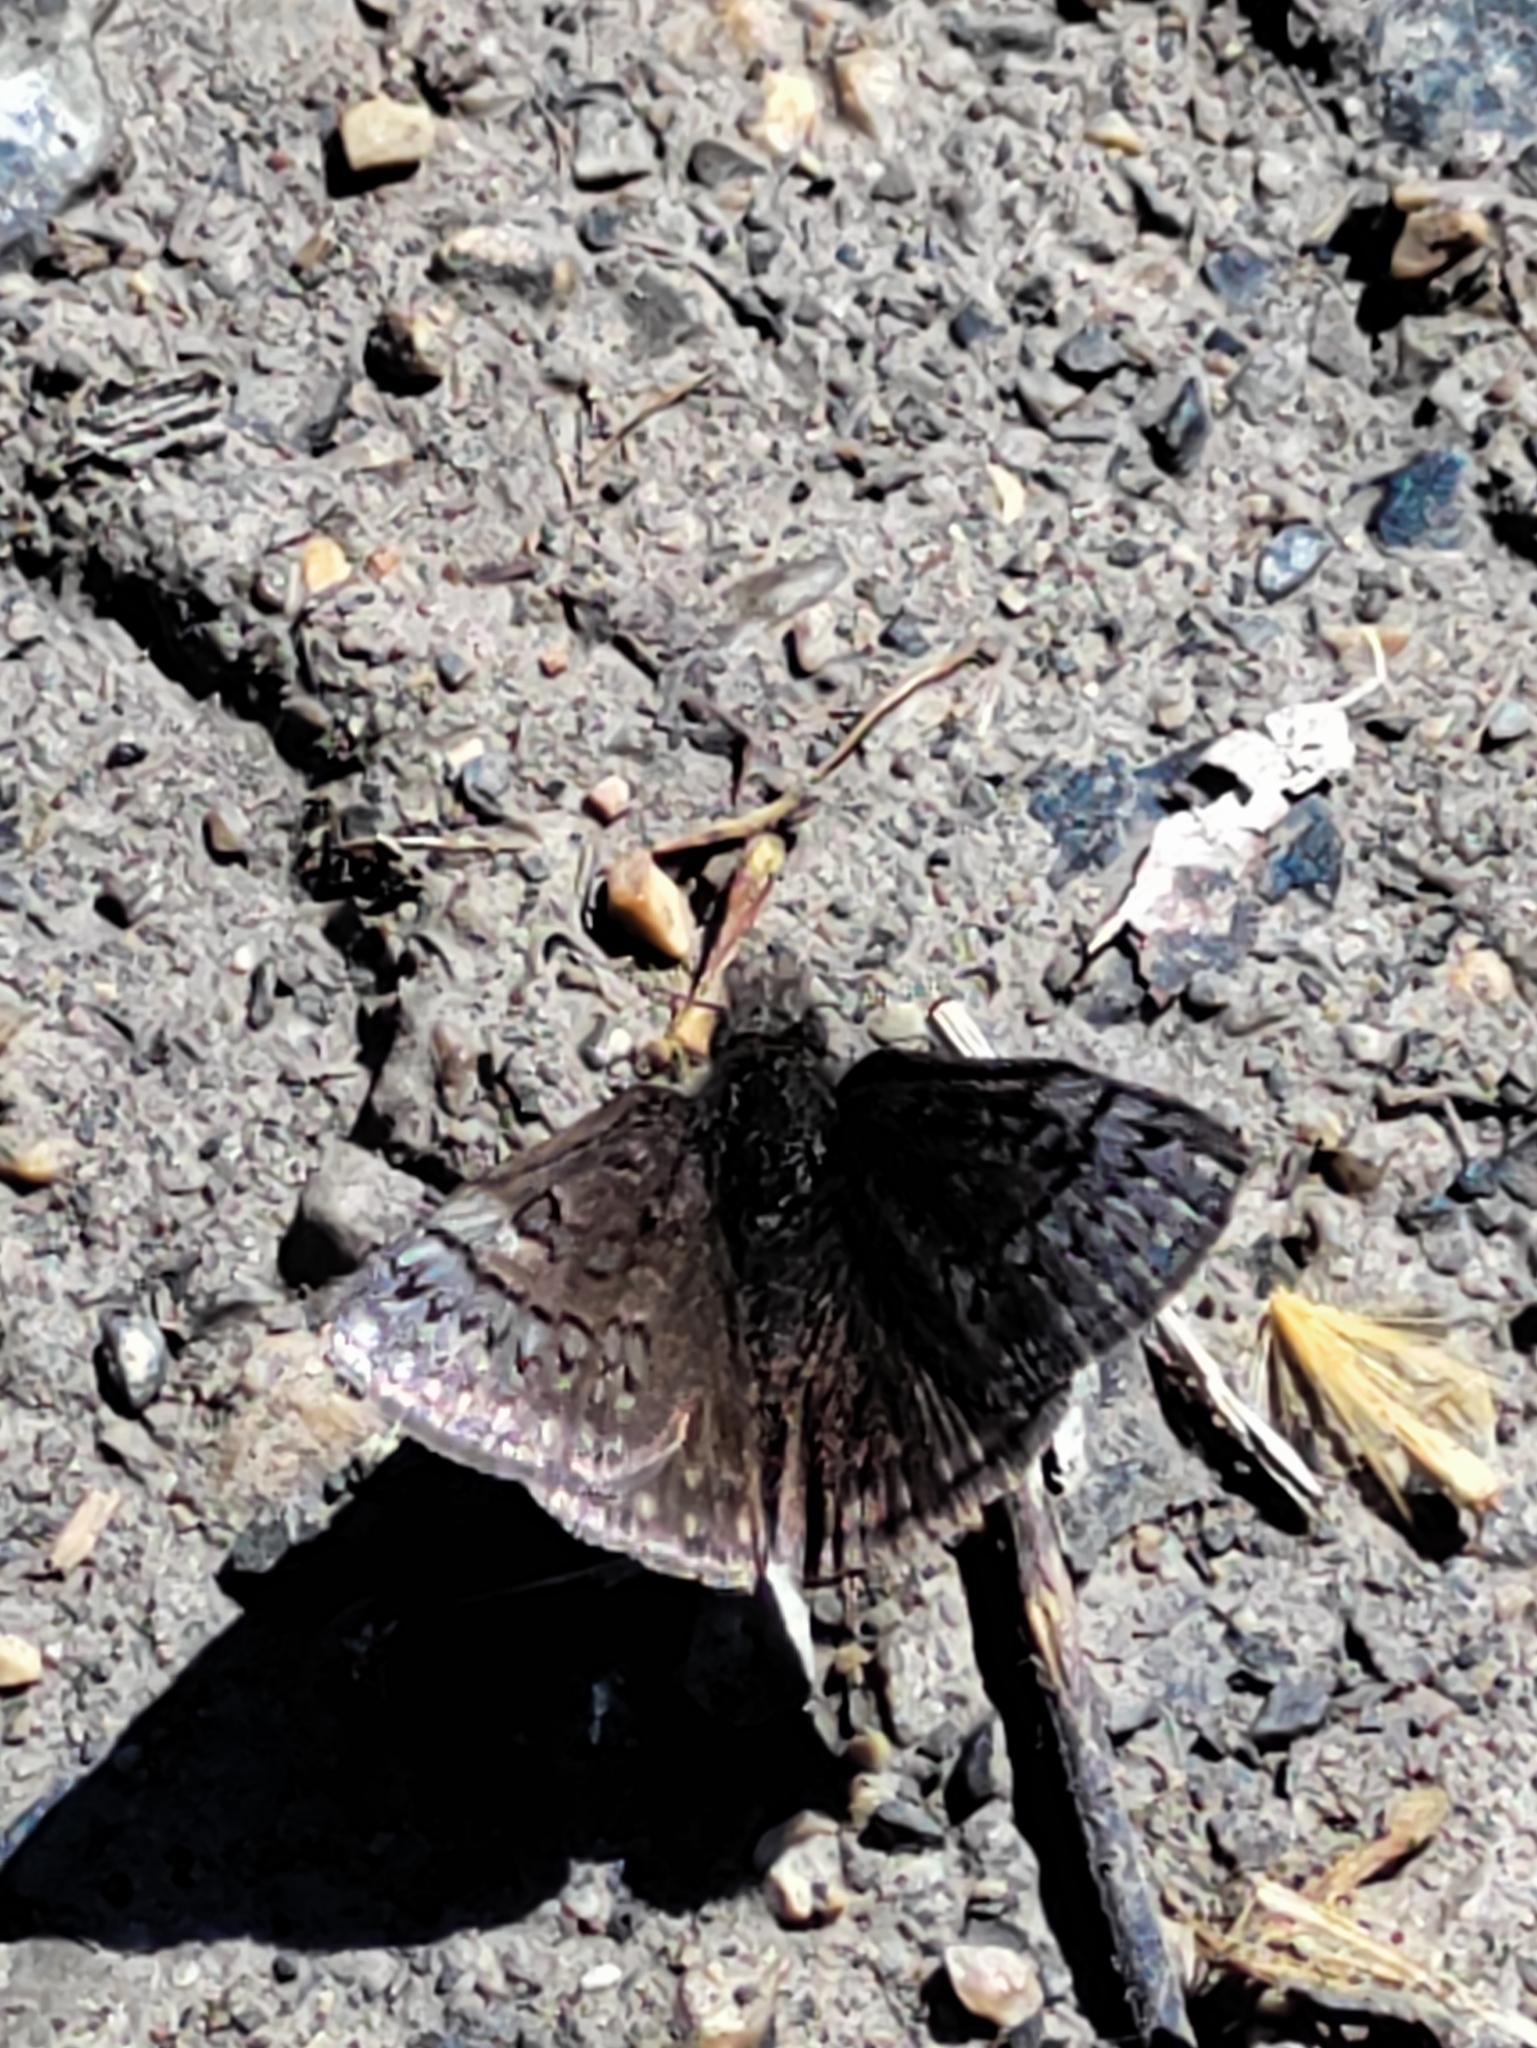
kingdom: Animalia
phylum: Arthropoda
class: Insecta
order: Lepidoptera
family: Hesperiidae
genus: Erynnis
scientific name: Erynnis brizo
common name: Sleepy duskywing
